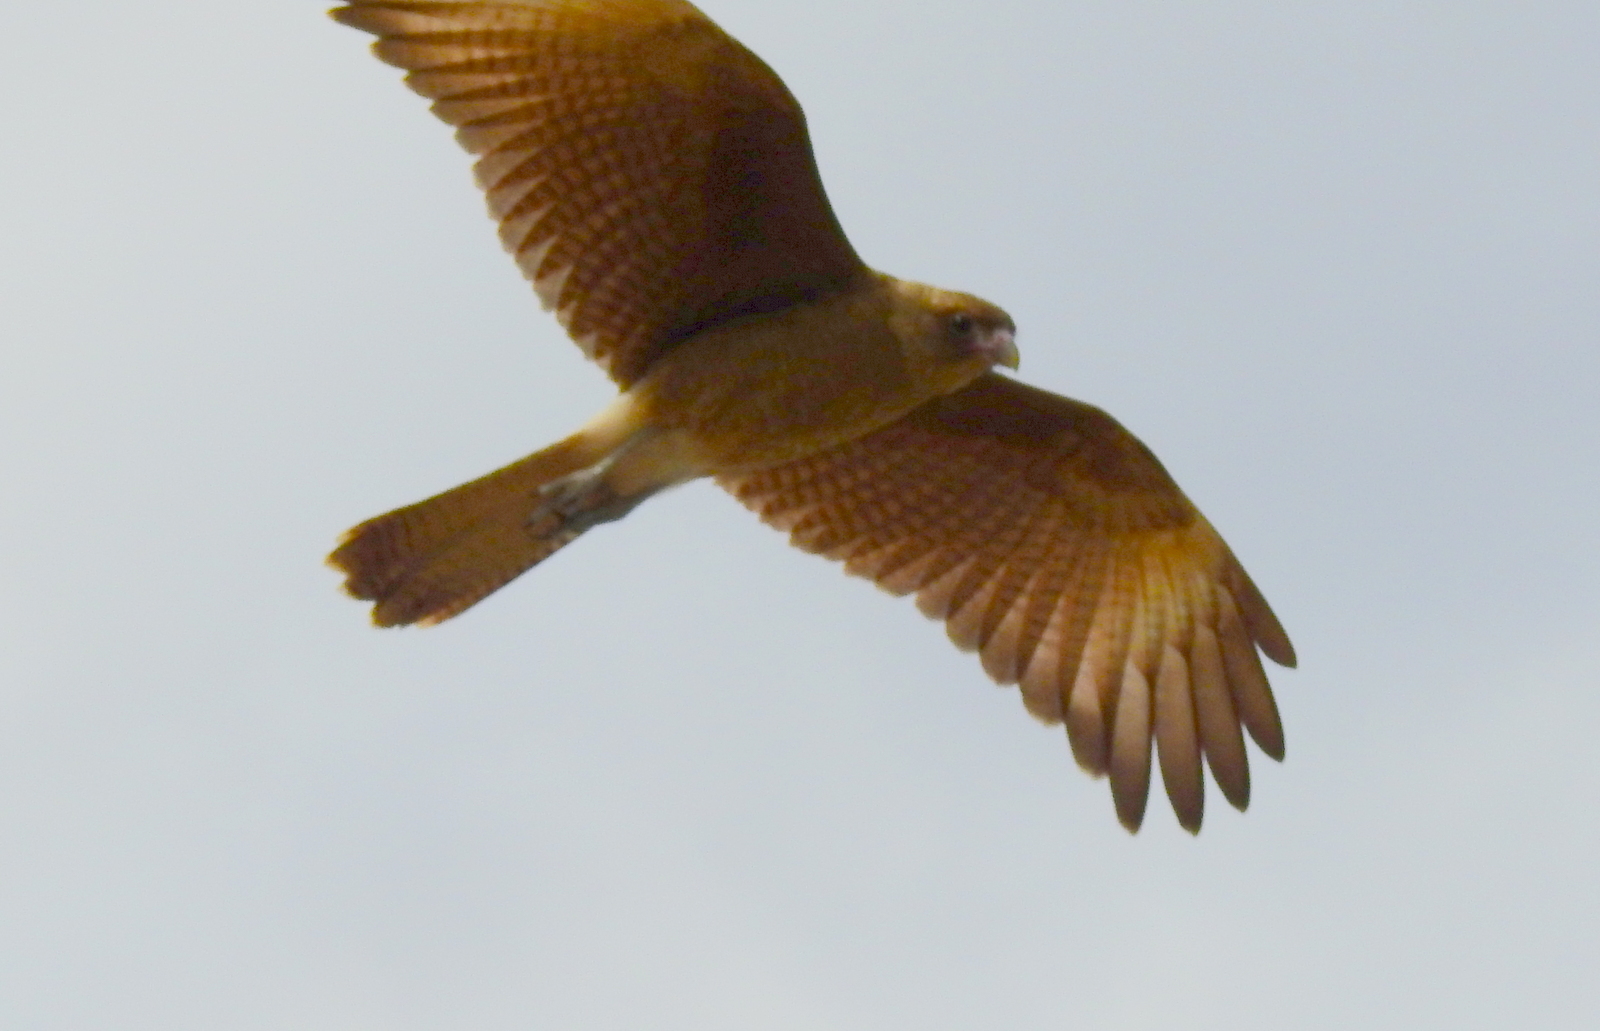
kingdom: Animalia
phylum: Chordata
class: Aves
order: Falconiformes
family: Falconidae
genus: Daptrius
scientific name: Daptrius
